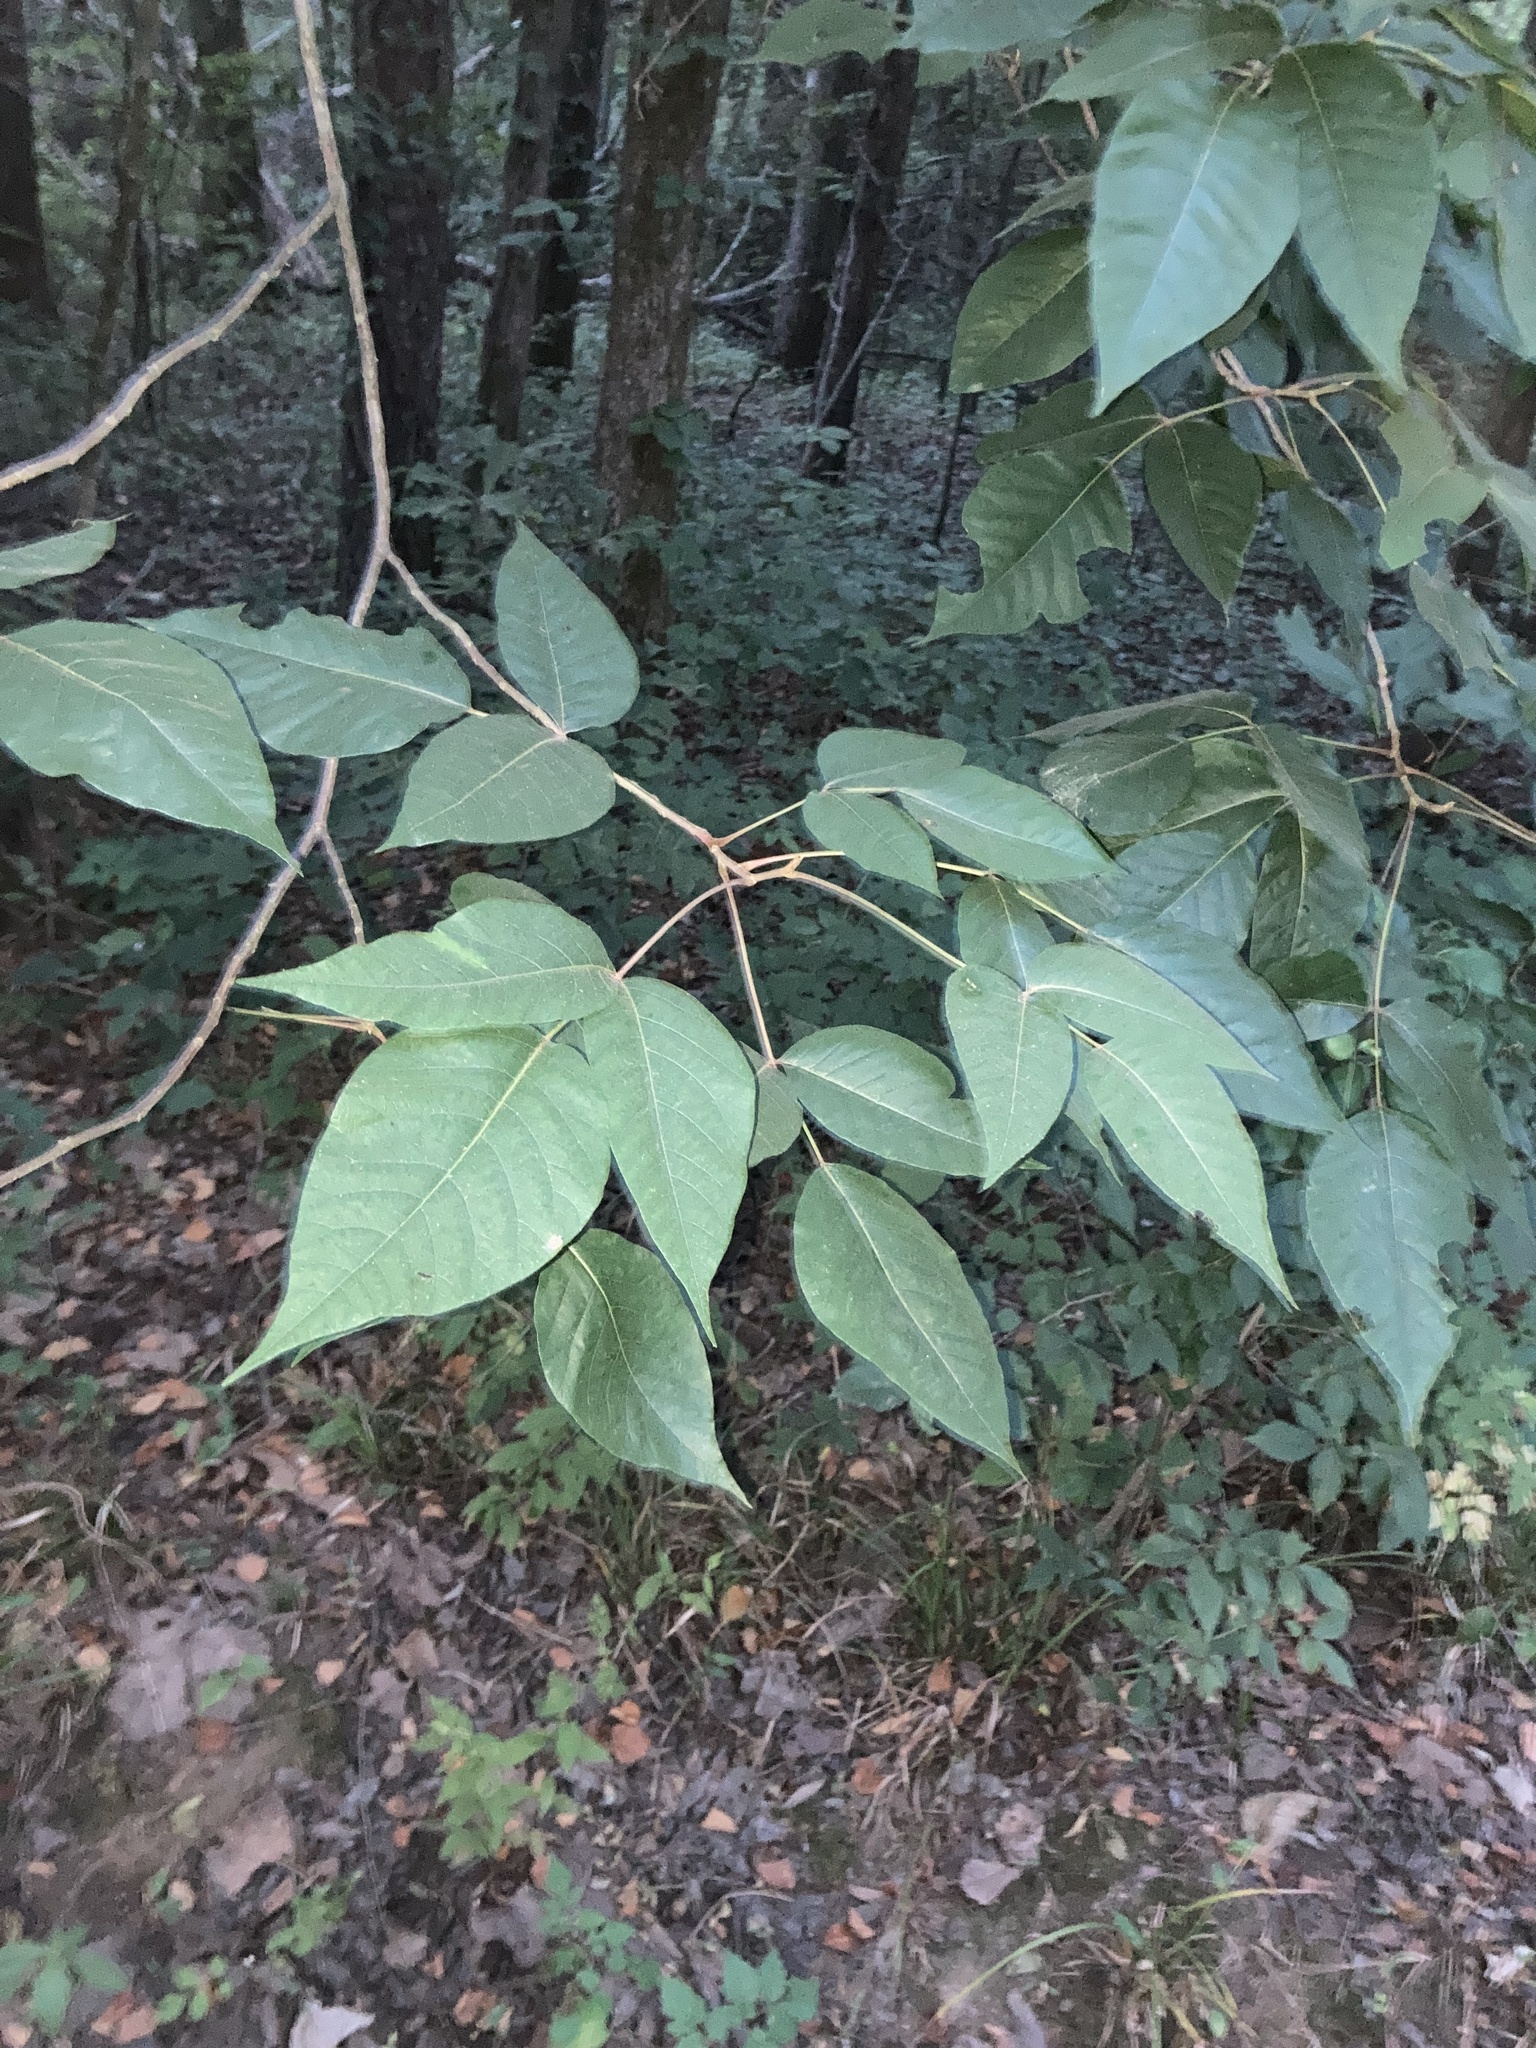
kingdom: Plantae
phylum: Tracheophyta
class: Magnoliopsida
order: Sapindales
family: Anacardiaceae
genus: Toxicodendron
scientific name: Toxicodendron radicans
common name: Poison ivy
